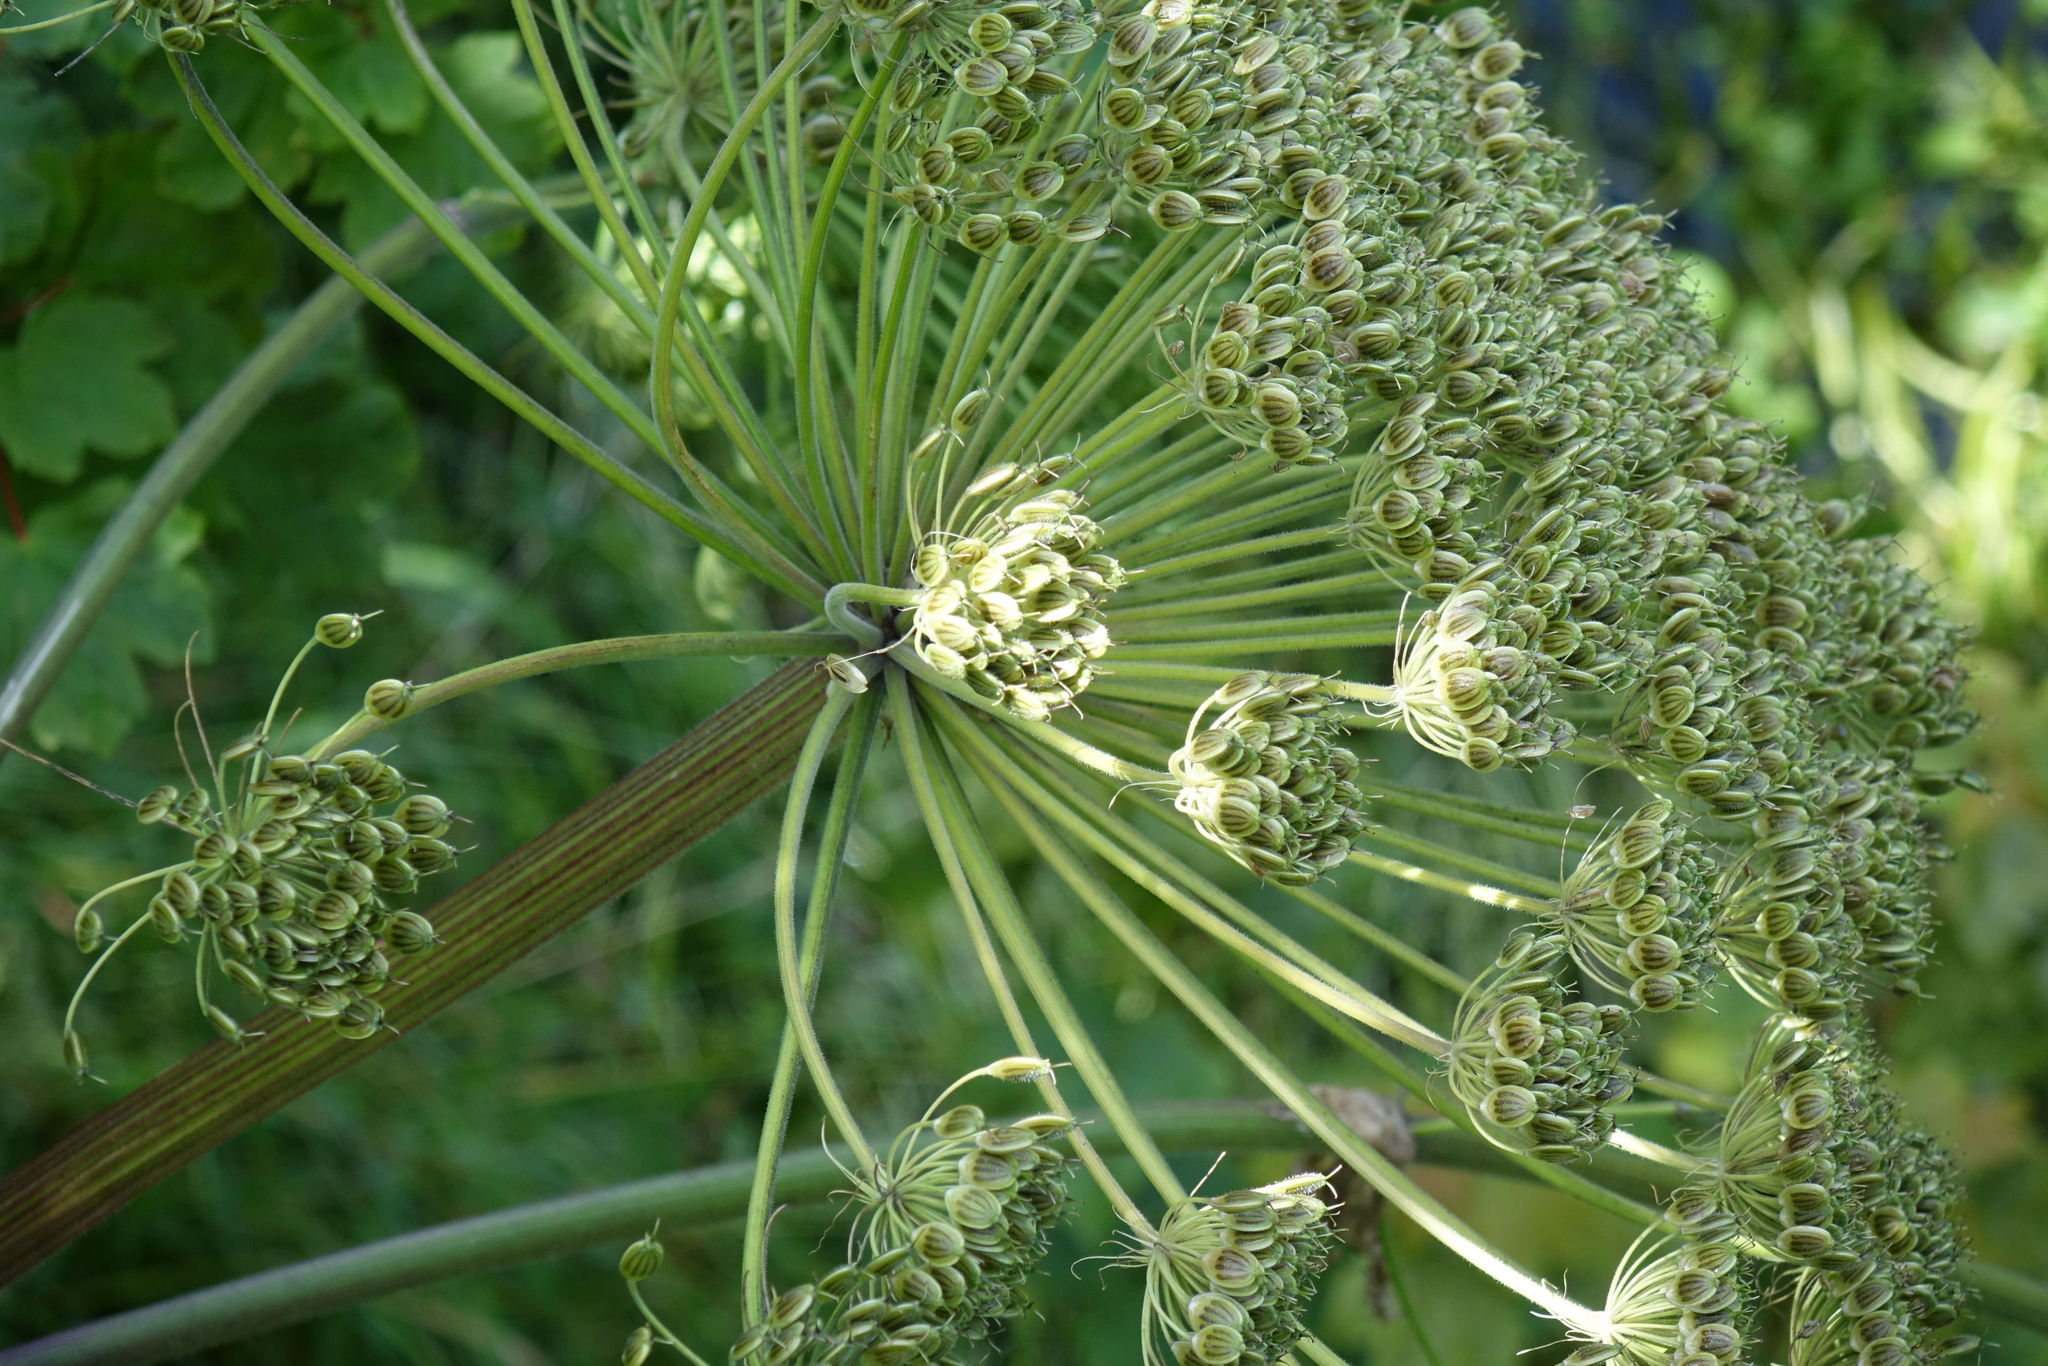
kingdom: Plantae
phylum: Tracheophyta
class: Magnoliopsida
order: Apiales
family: Apiaceae
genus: Heracleum
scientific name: Heracleum mantegazzianum
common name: Giant hogweed
